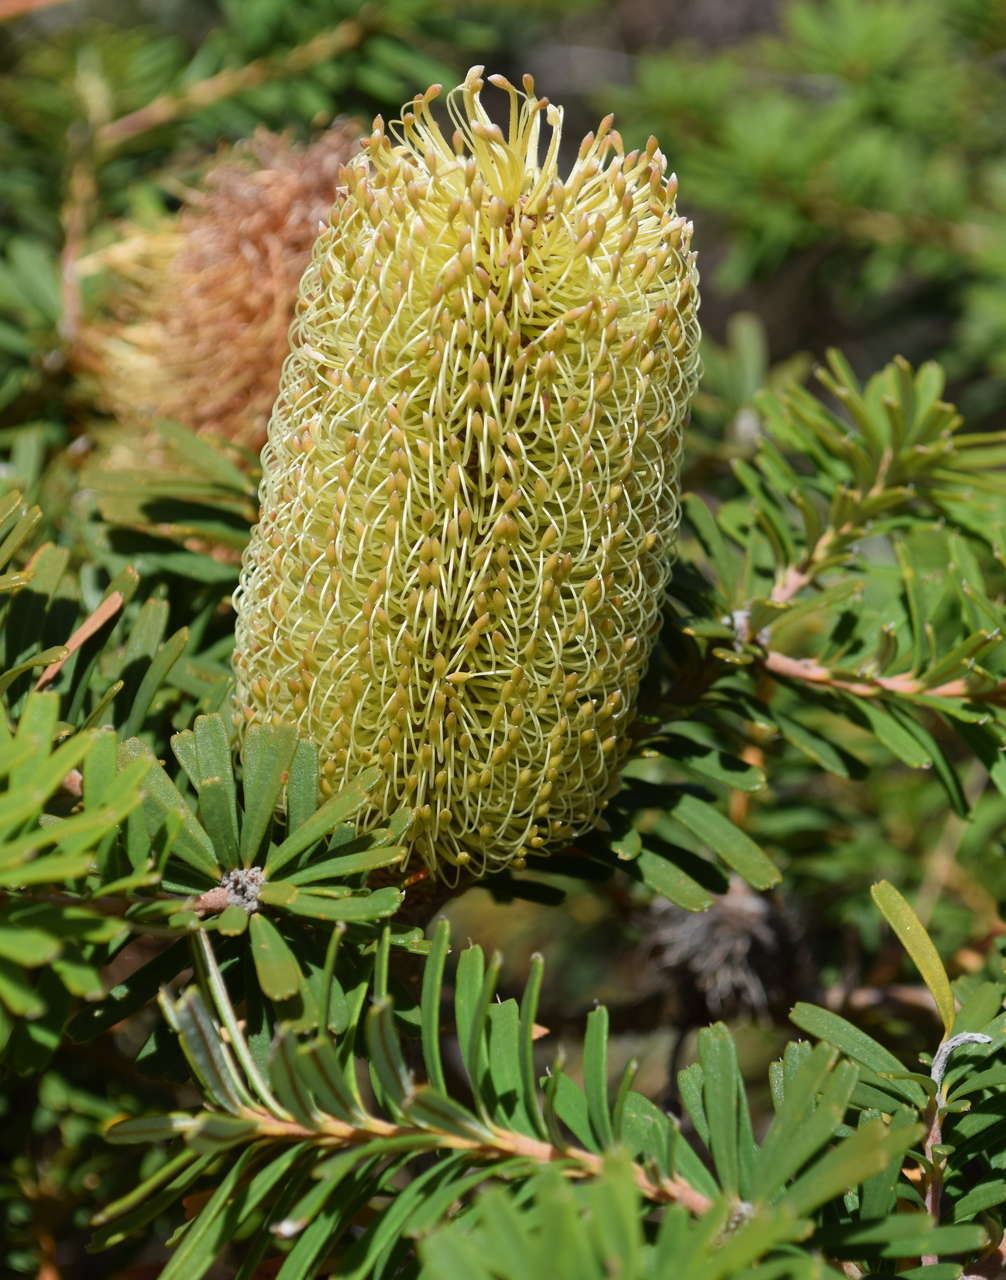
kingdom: Plantae
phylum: Tracheophyta
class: Magnoliopsida
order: Proteales
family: Proteaceae
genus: Banksia
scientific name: Banksia marginata
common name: Silver banksia
